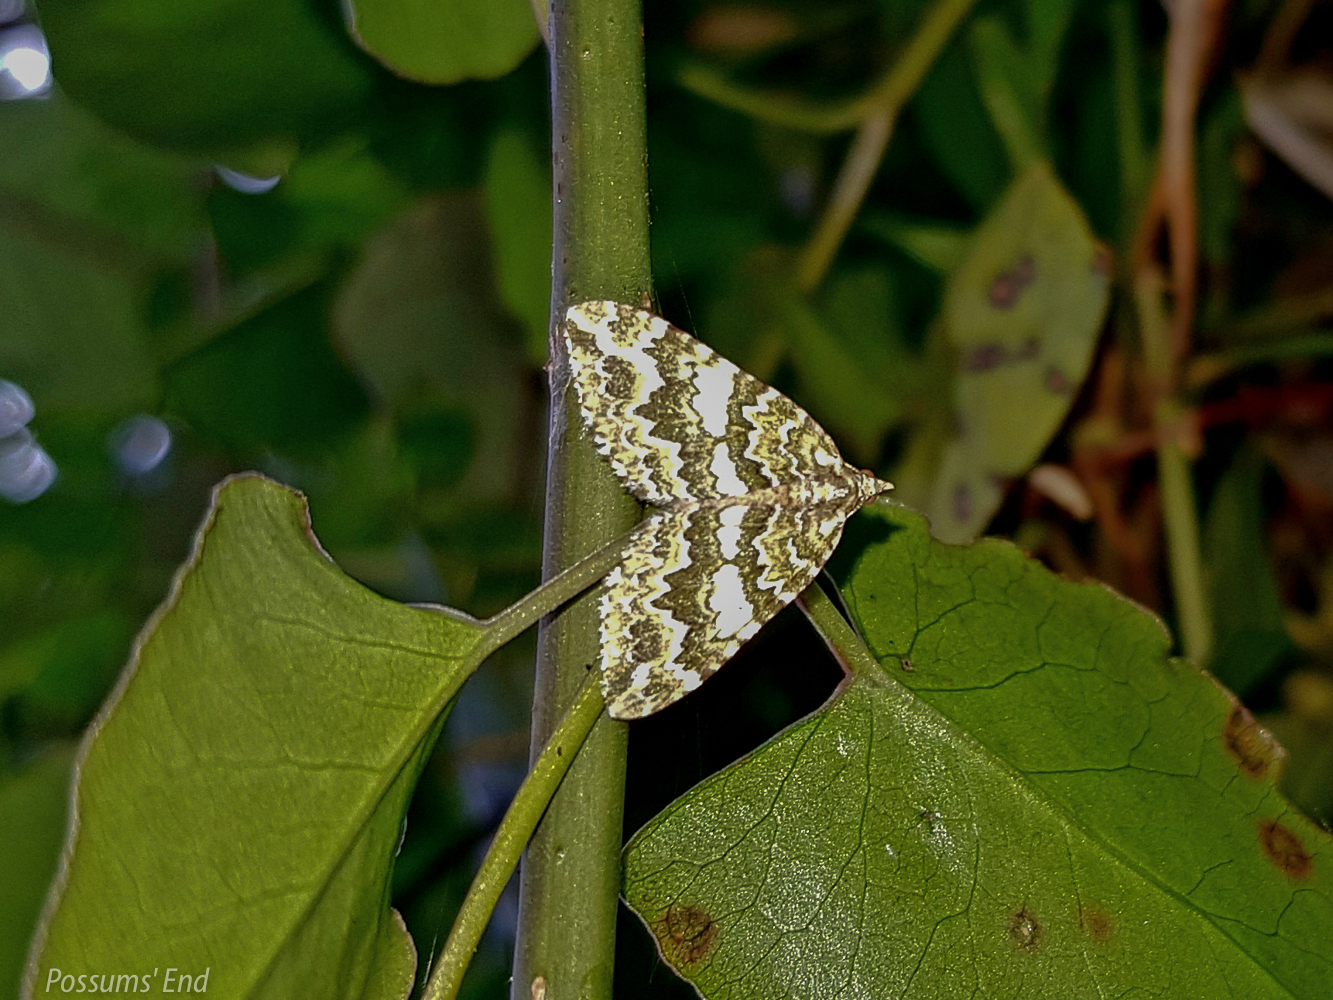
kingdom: Animalia
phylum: Arthropoda
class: Insecta
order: Lepidoptera
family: Geometridae
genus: Asaphodes
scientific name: Asaphodes beata
